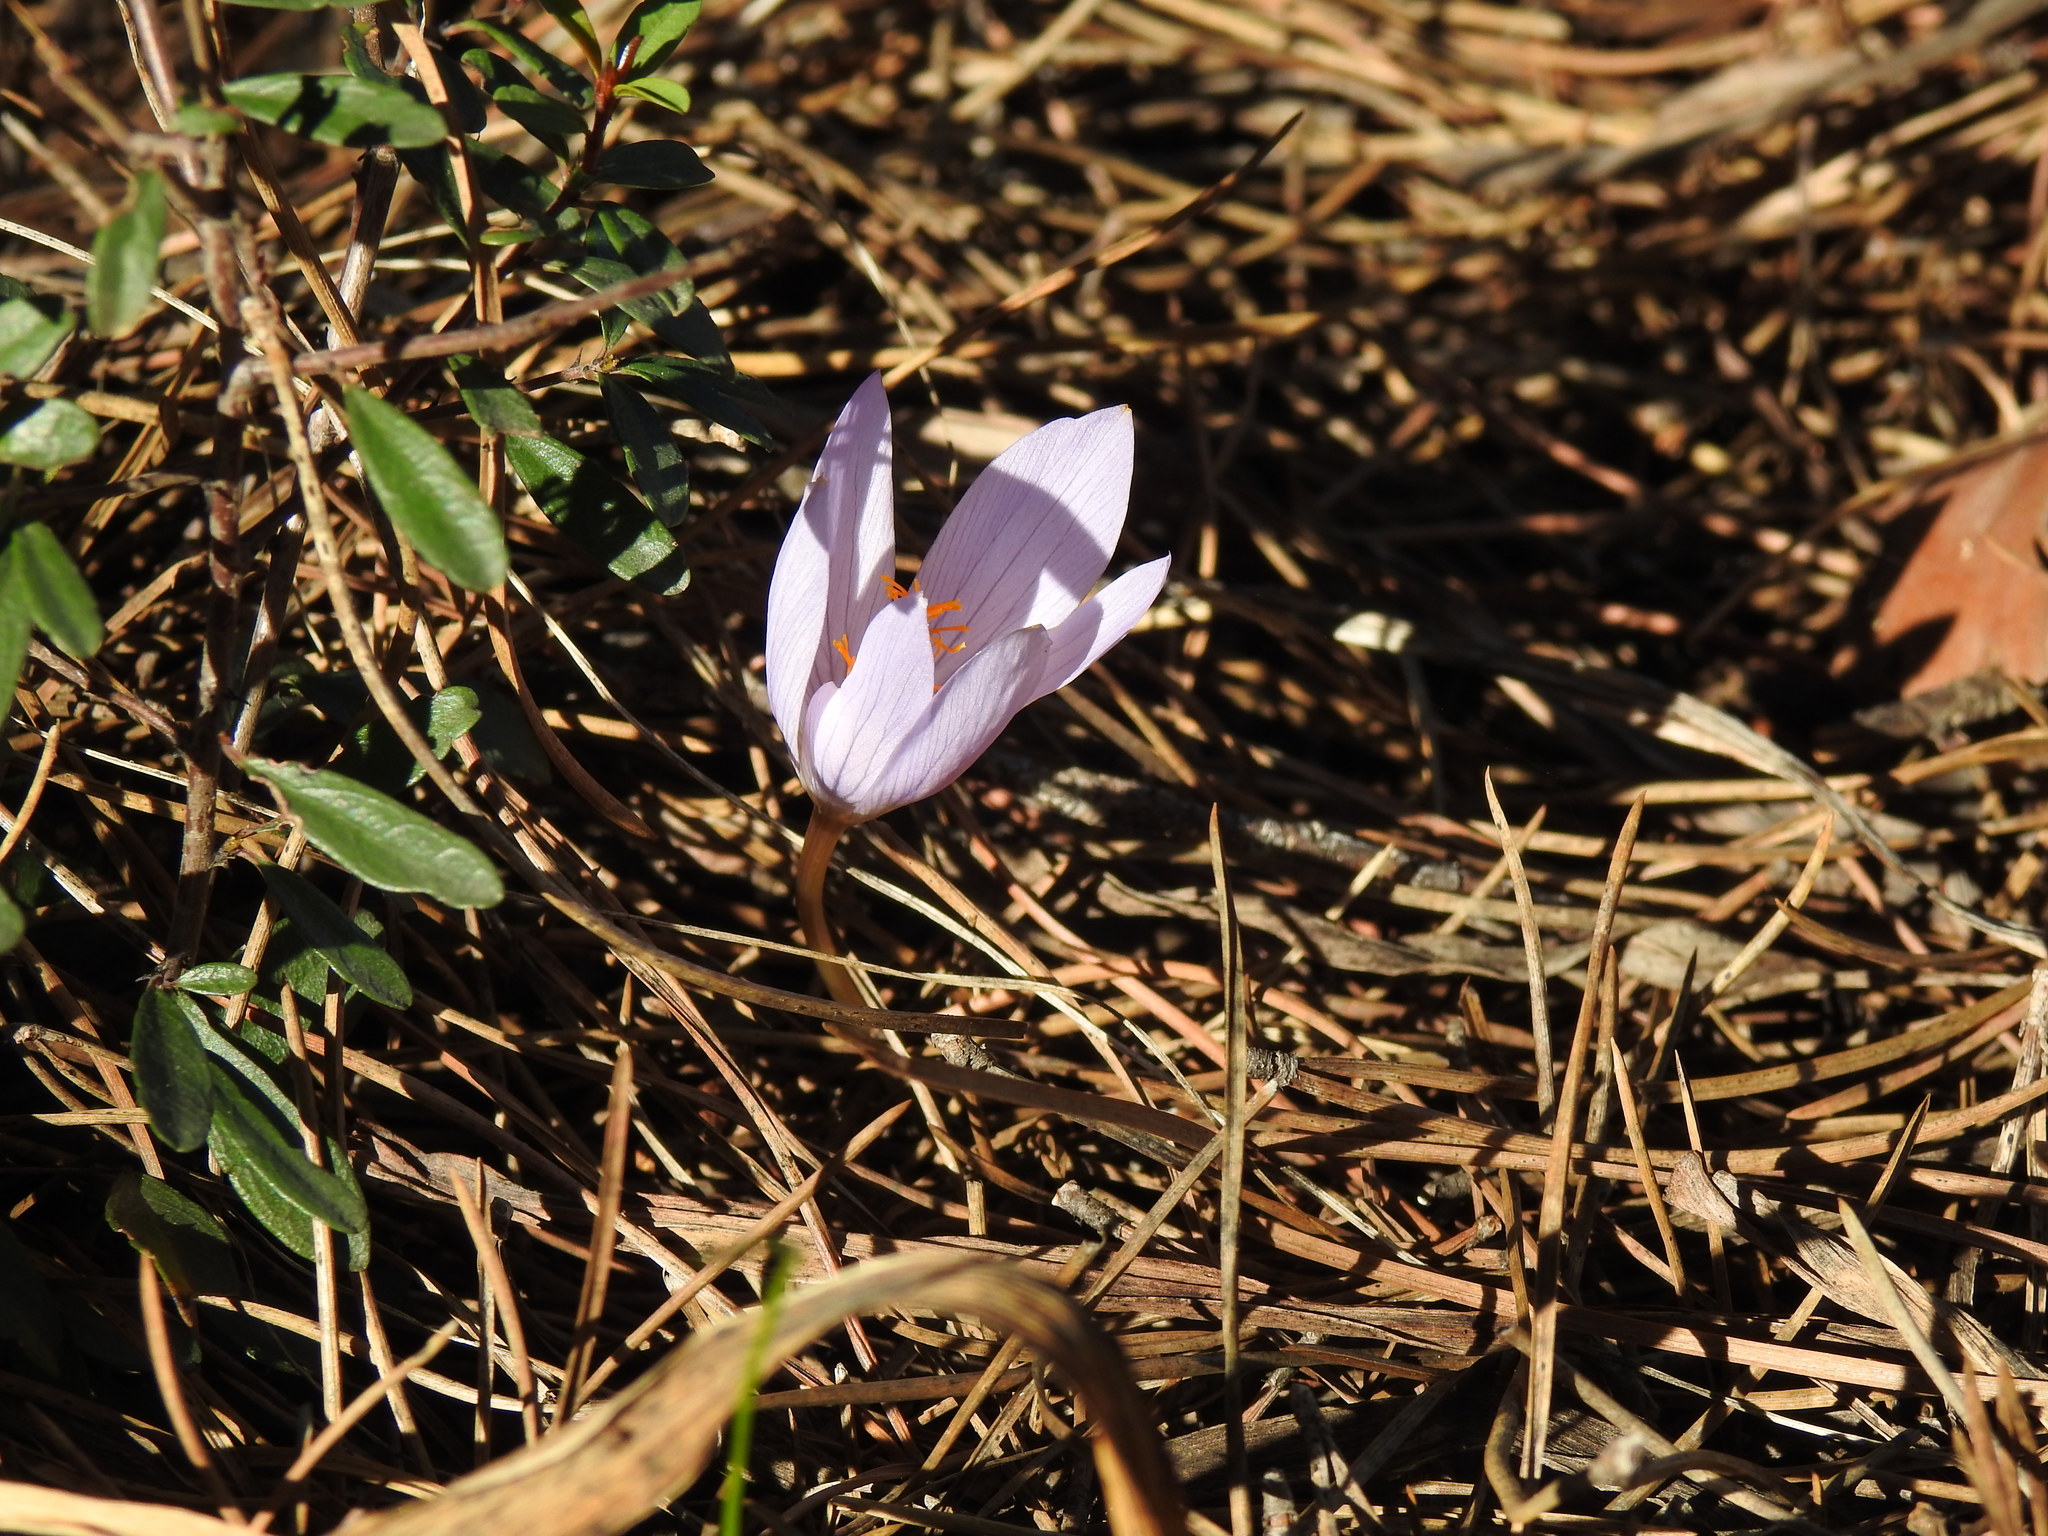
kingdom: Plantae
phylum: Tracheophyta
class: Liliopsida
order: Asparagales
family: Iridaceae
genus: Crocus
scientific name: Crocus serotinus
